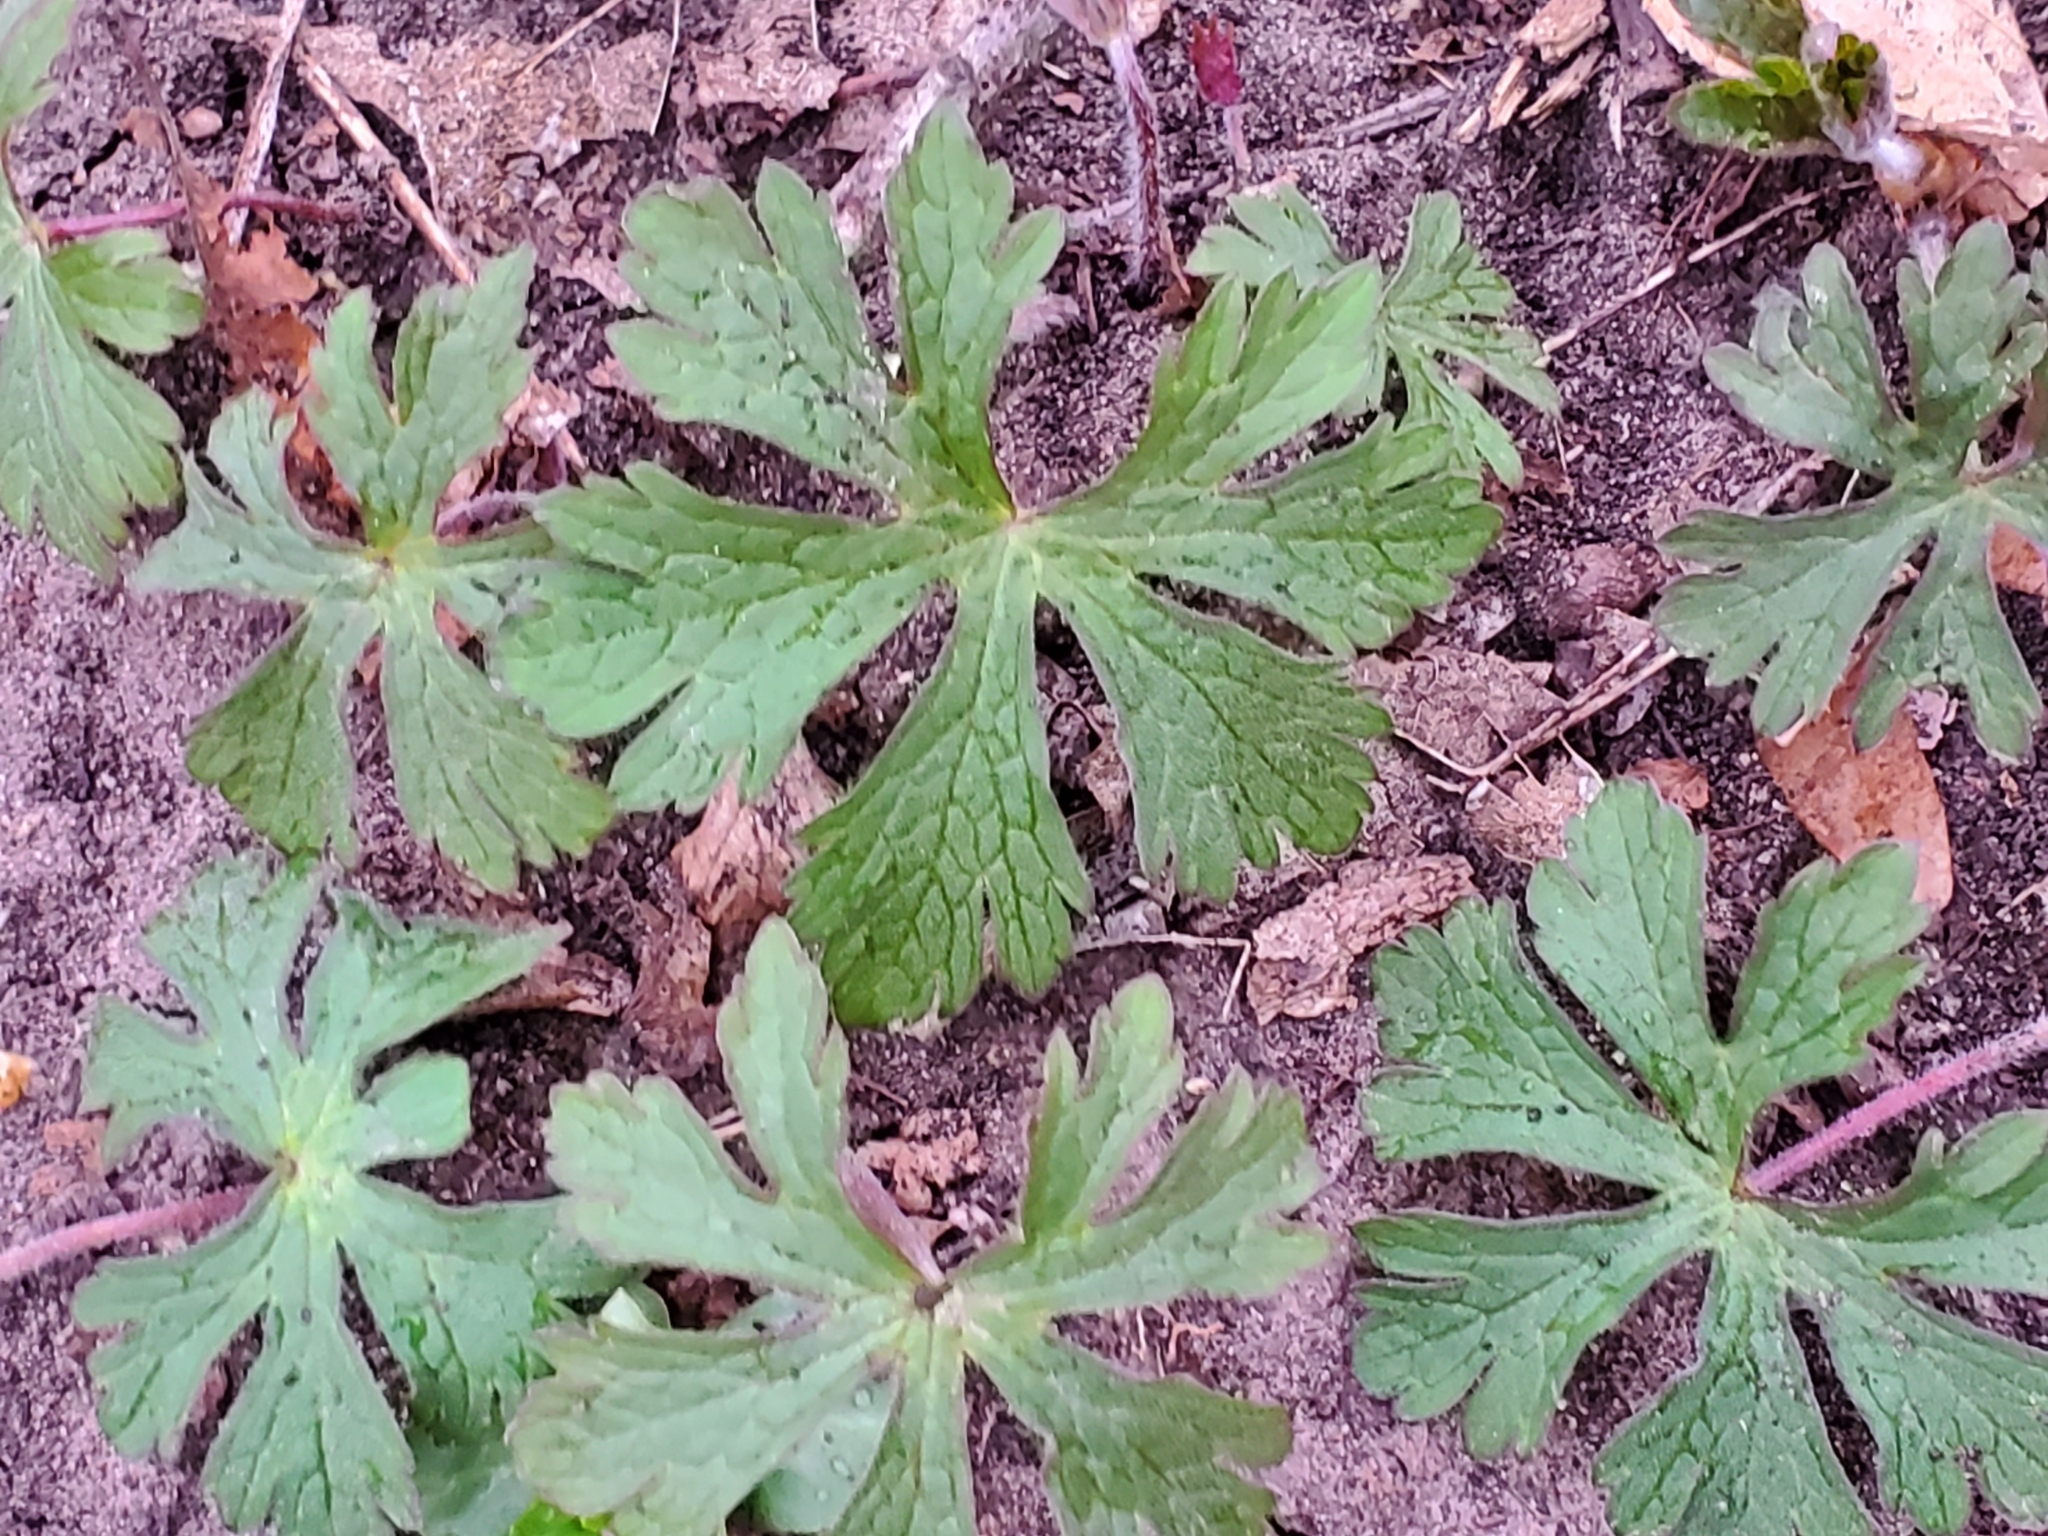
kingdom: Plantae
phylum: Tracheophyta
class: Magnoliopsida
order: Geraniales
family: Geraniaceae
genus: Geranium
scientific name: Geranium maculatum
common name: Spotted geranium
